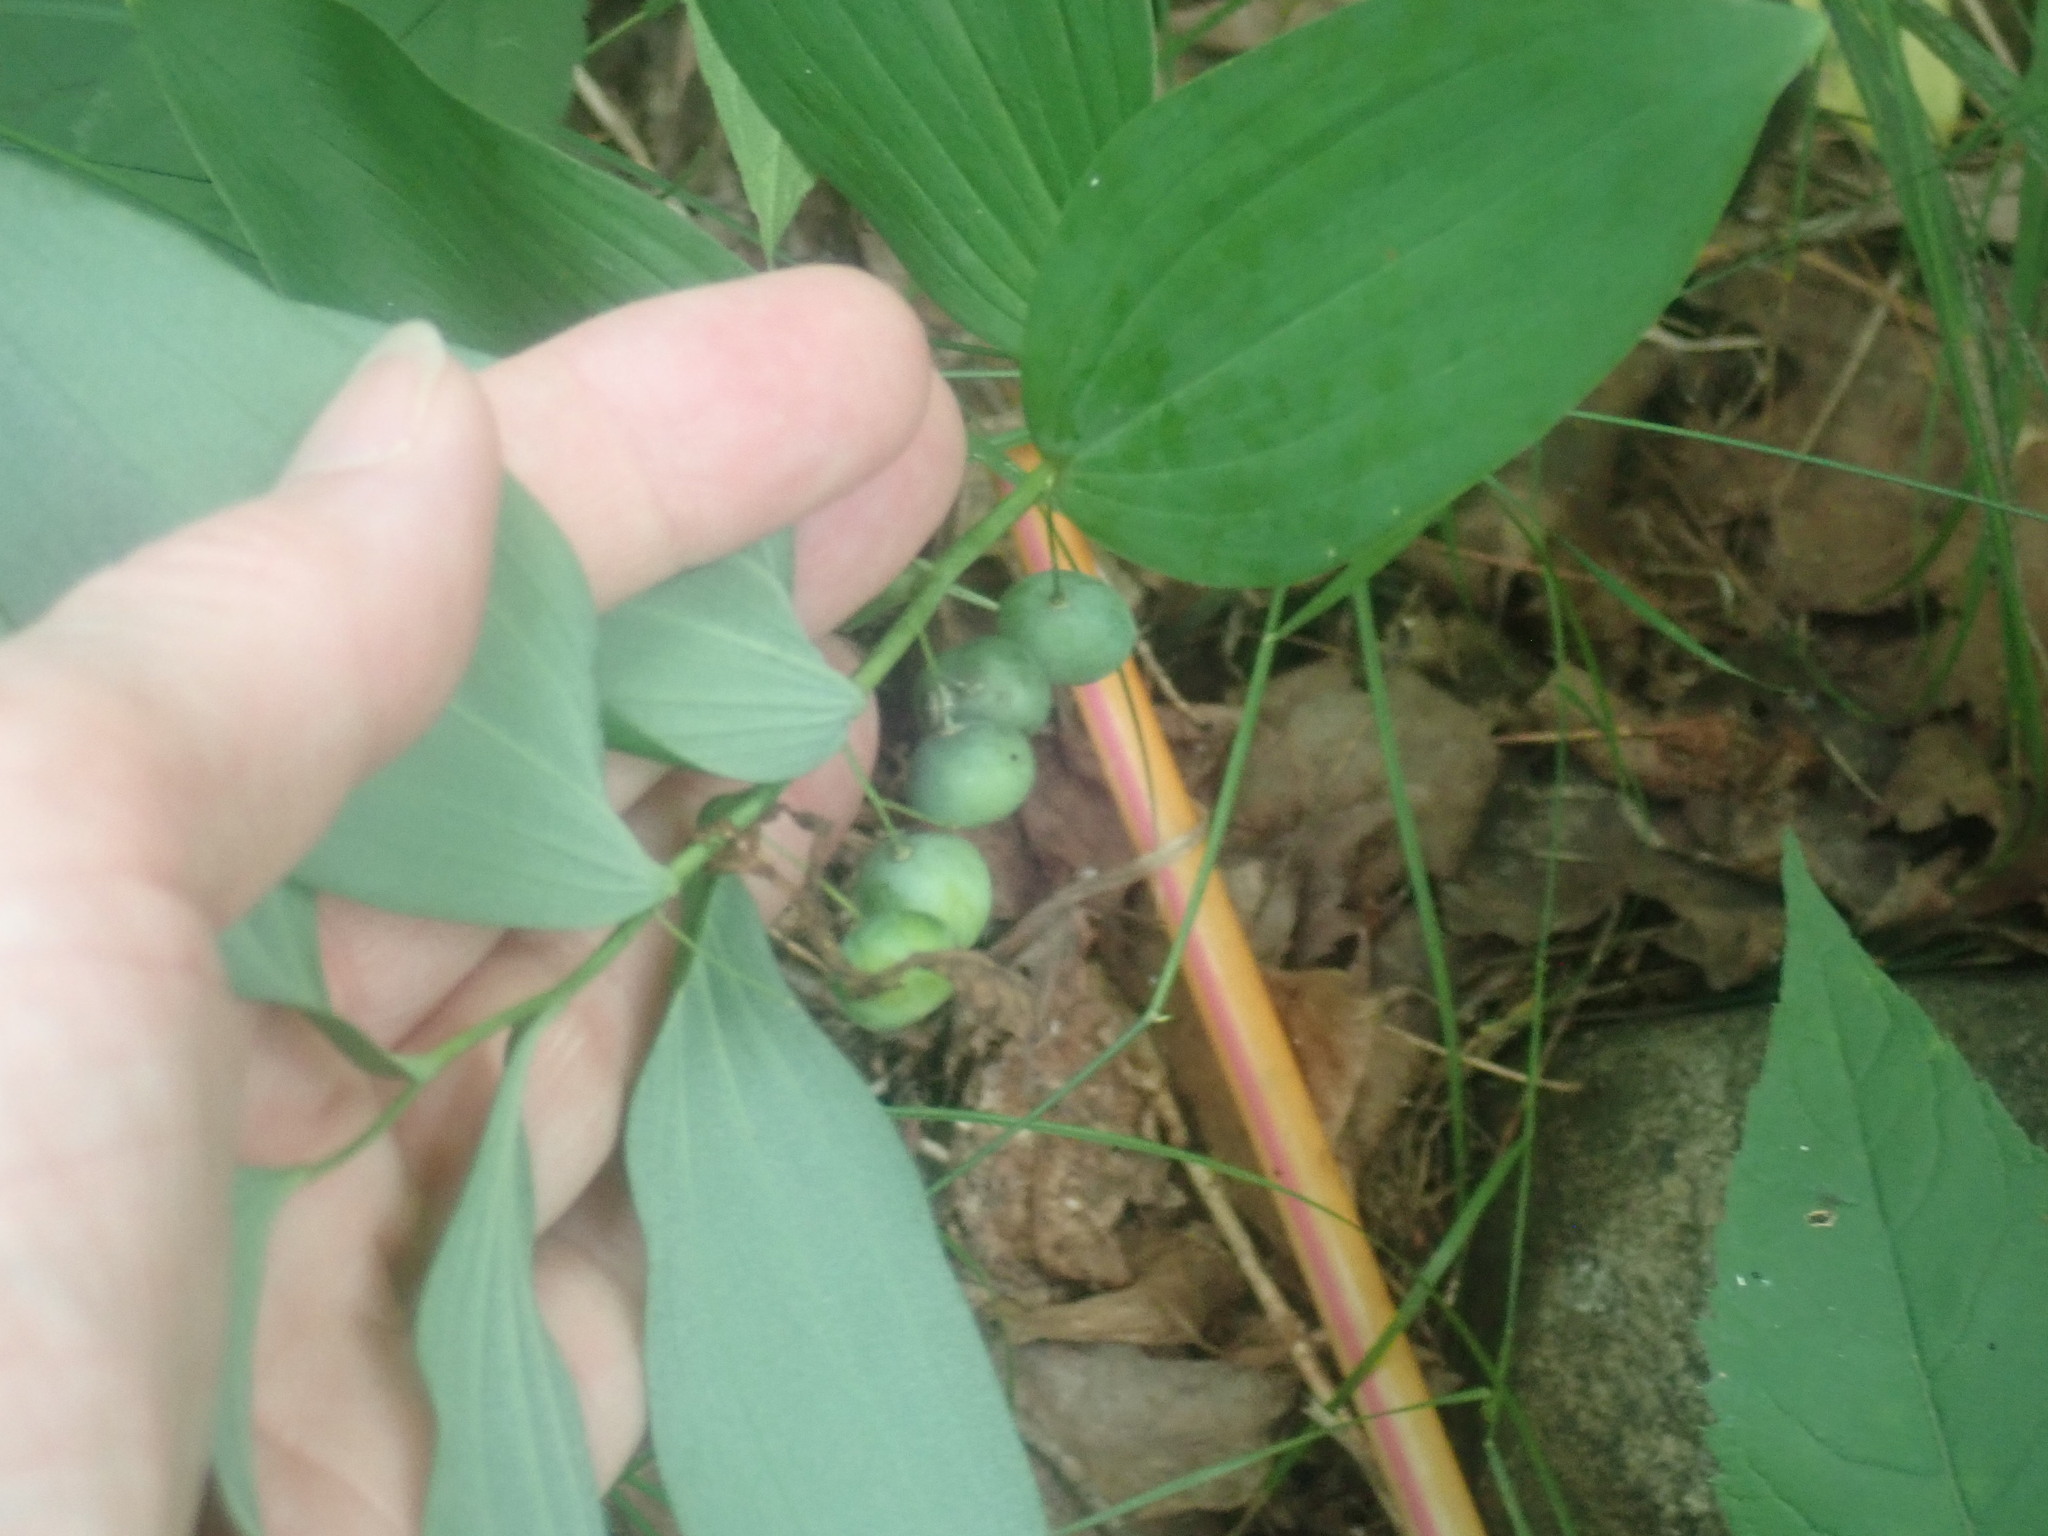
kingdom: Plantae
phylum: Tracheophyta
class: Liliopsida
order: Asparagales
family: Asparagaceae
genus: Polygonatum
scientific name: Polygonatum pubescens
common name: Downy solomon's seal
